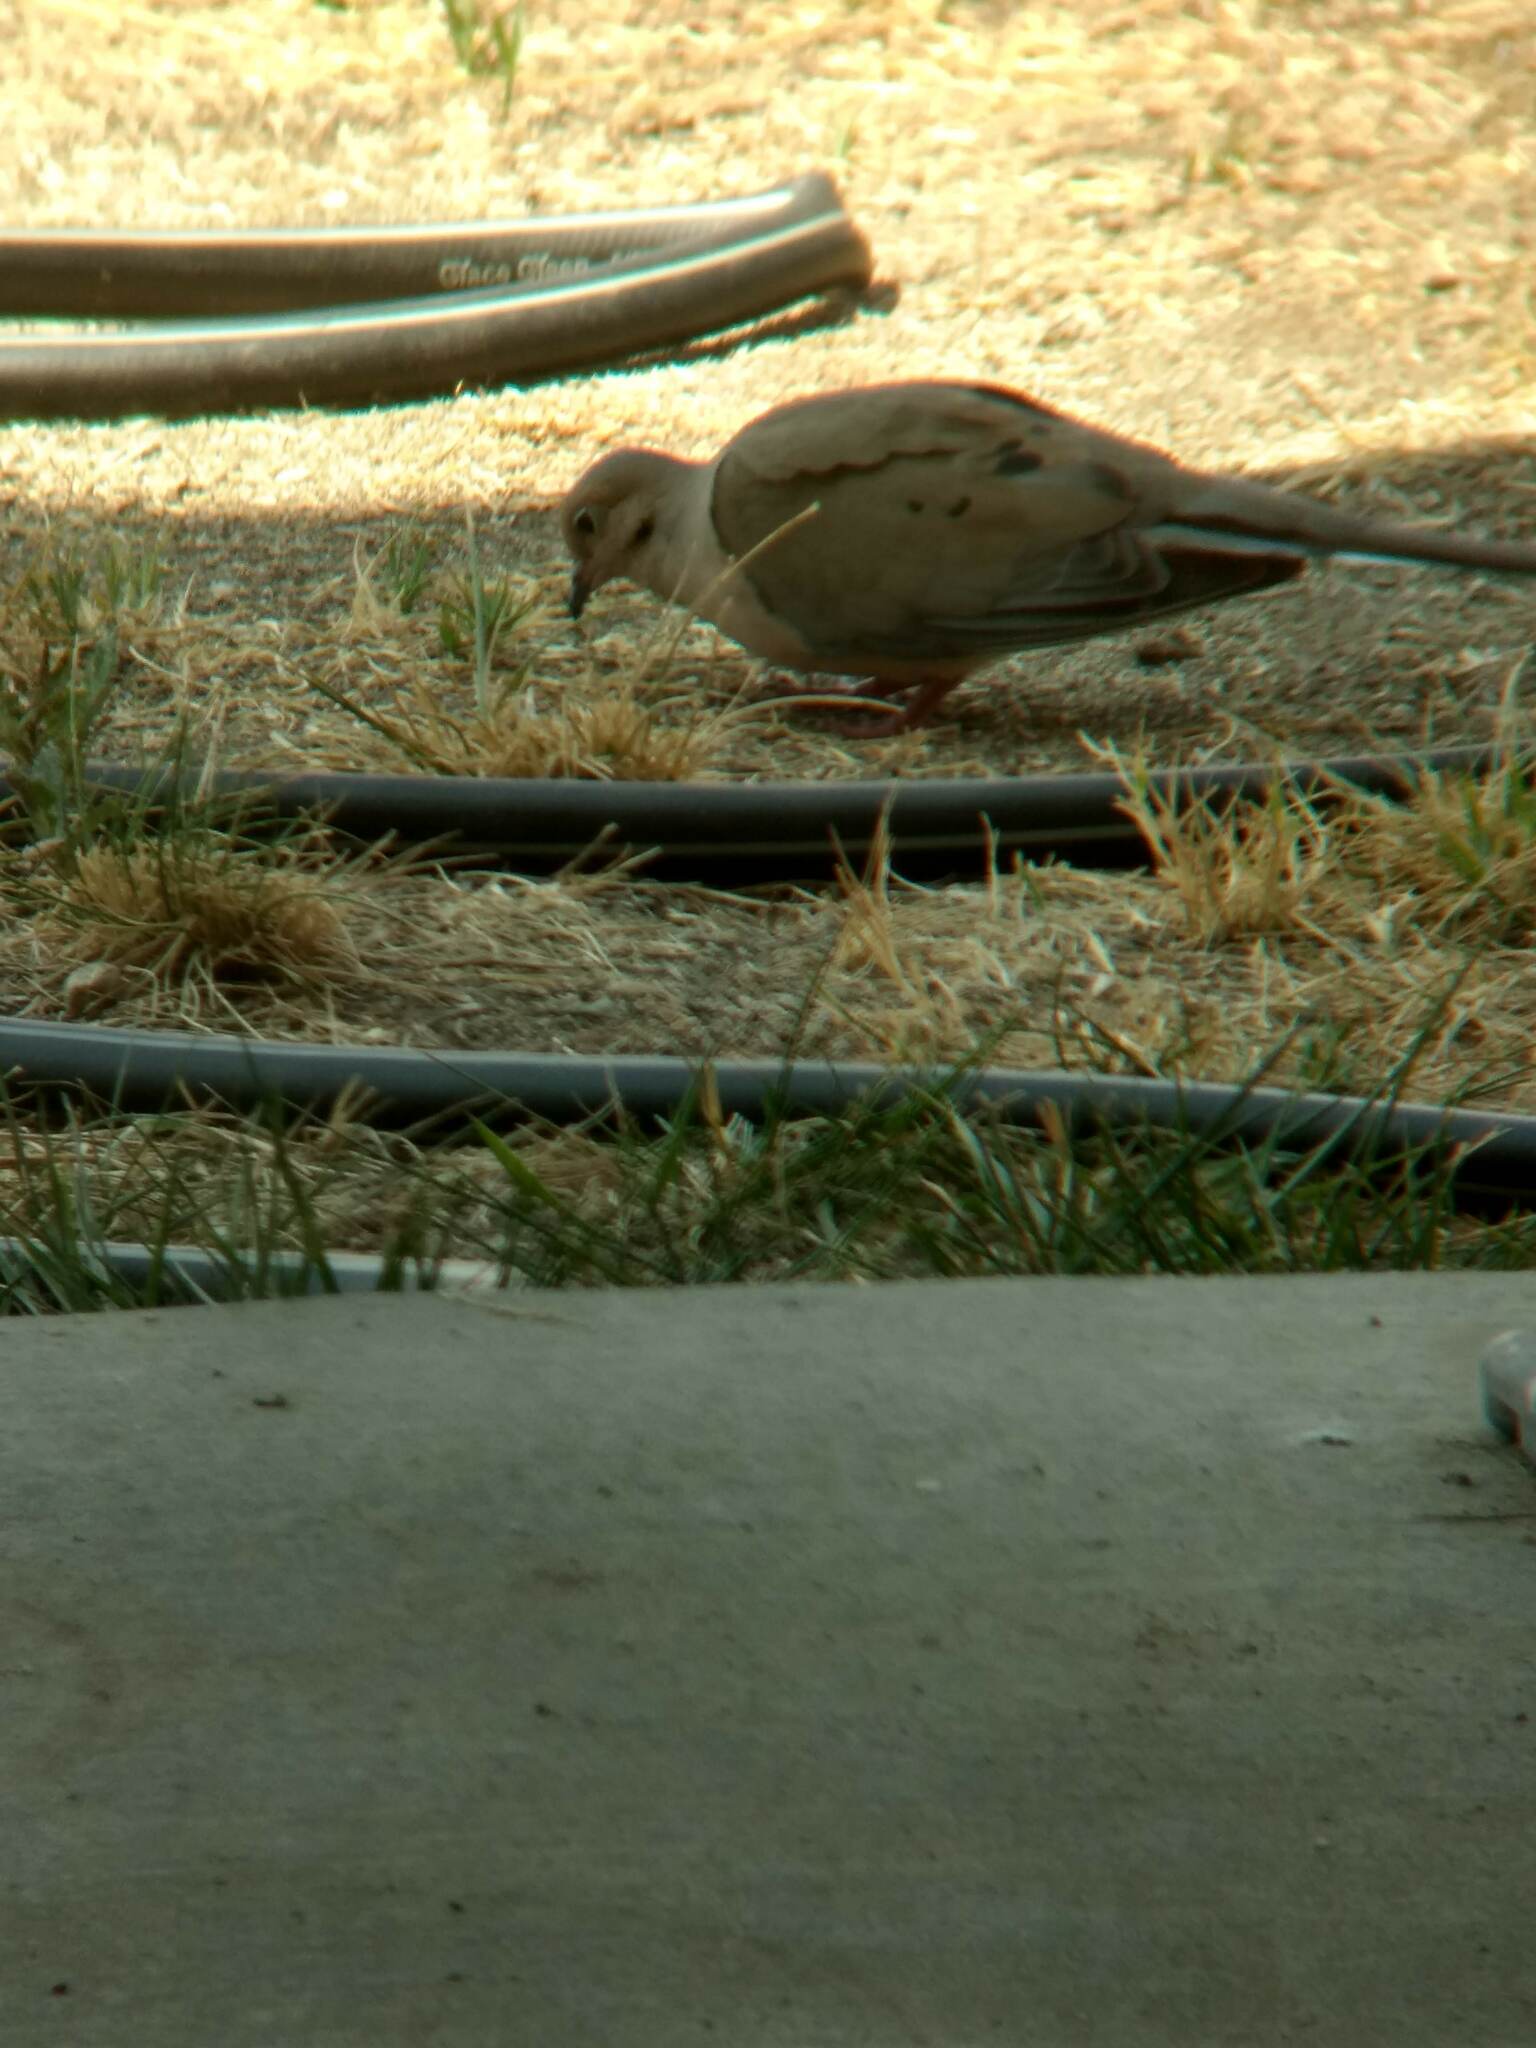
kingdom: Animalia
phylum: Chordata
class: Aves
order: Columbiformes
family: Columbidae
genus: Zenaida
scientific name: Zenaida macroura
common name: Mourning dove
